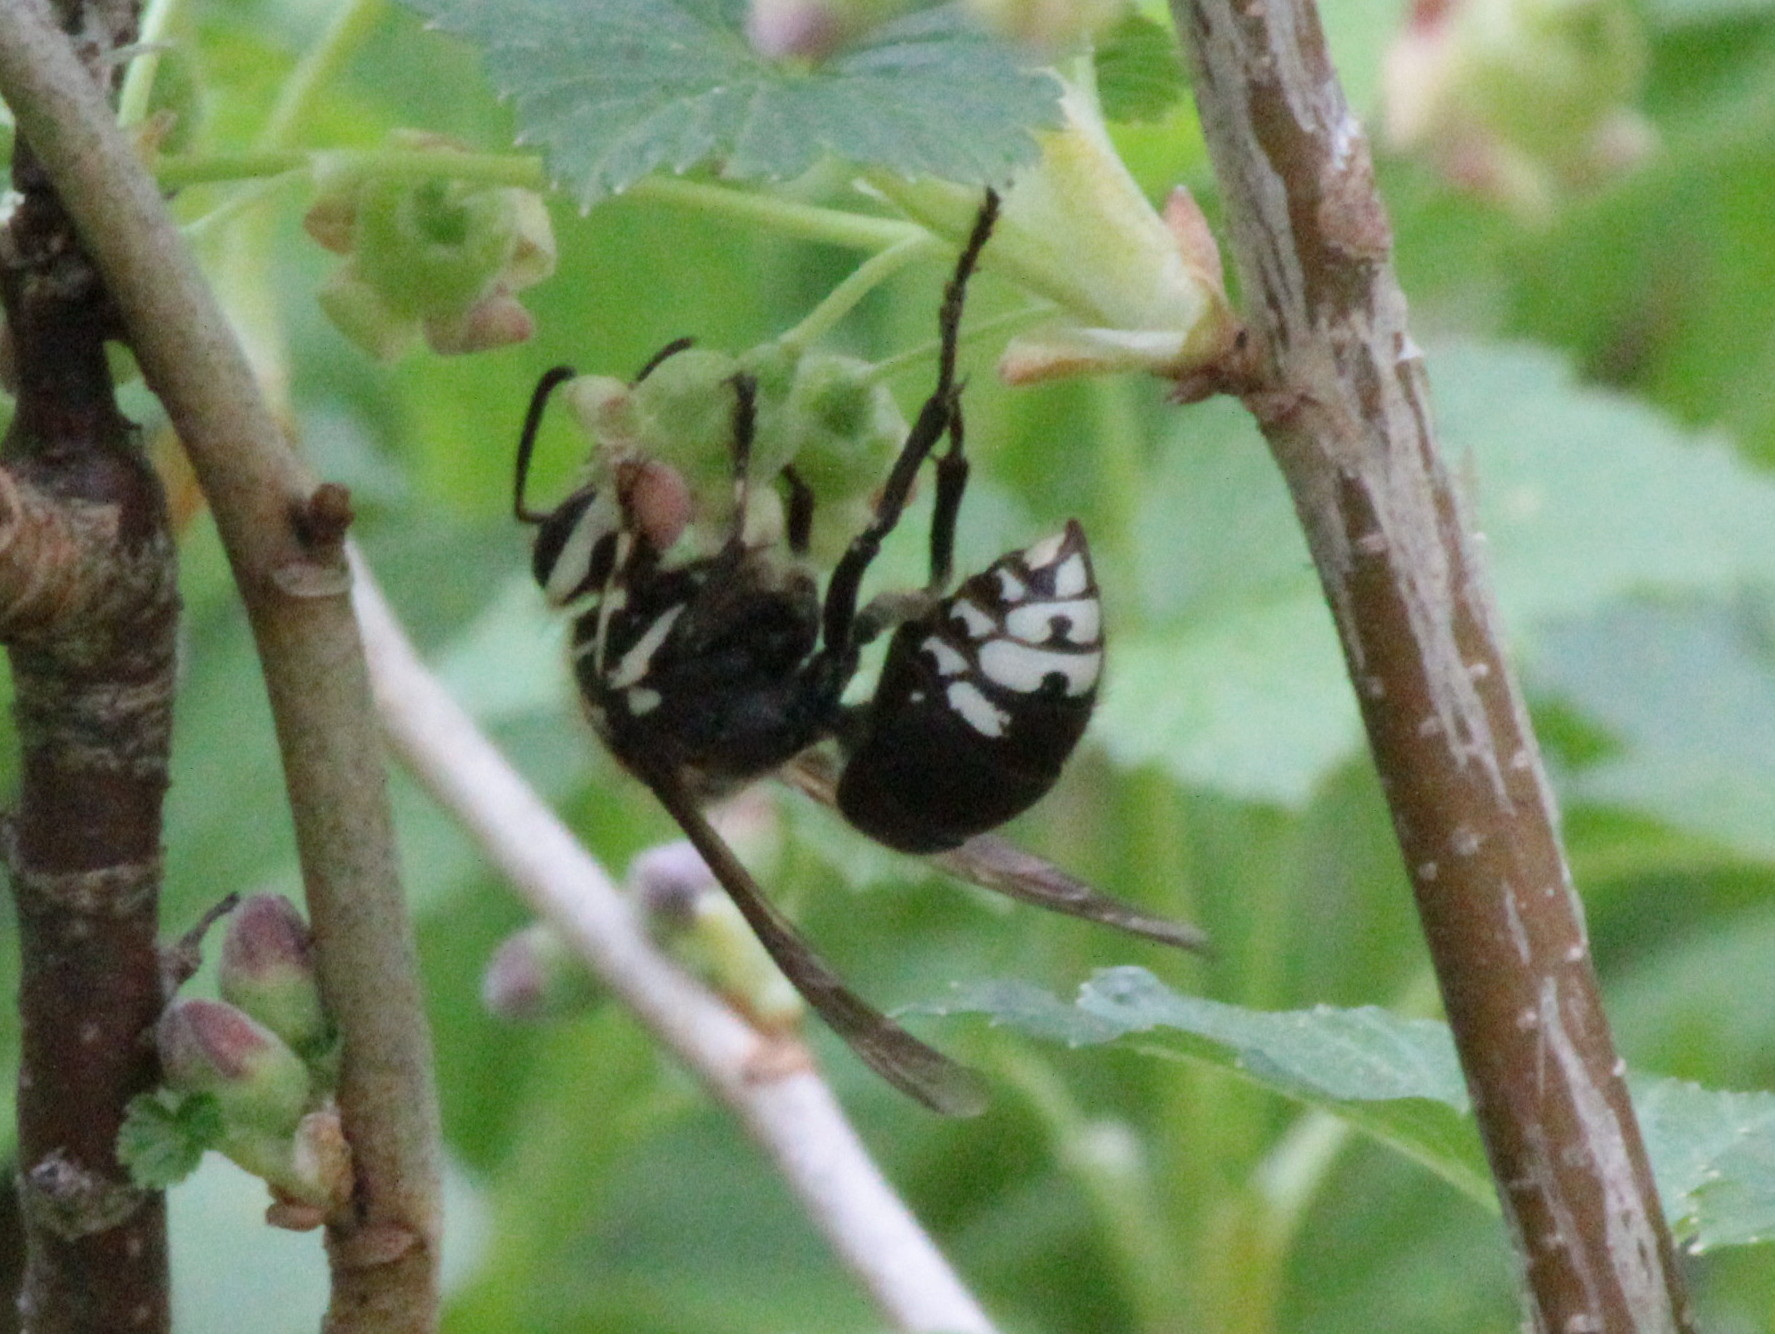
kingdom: Animalia
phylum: Arthropoda
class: Insecta
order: Hymenoptera
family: Vespidae
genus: Dolichovespula
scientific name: Dolichovespula maculata
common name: Bald-faced hornet
